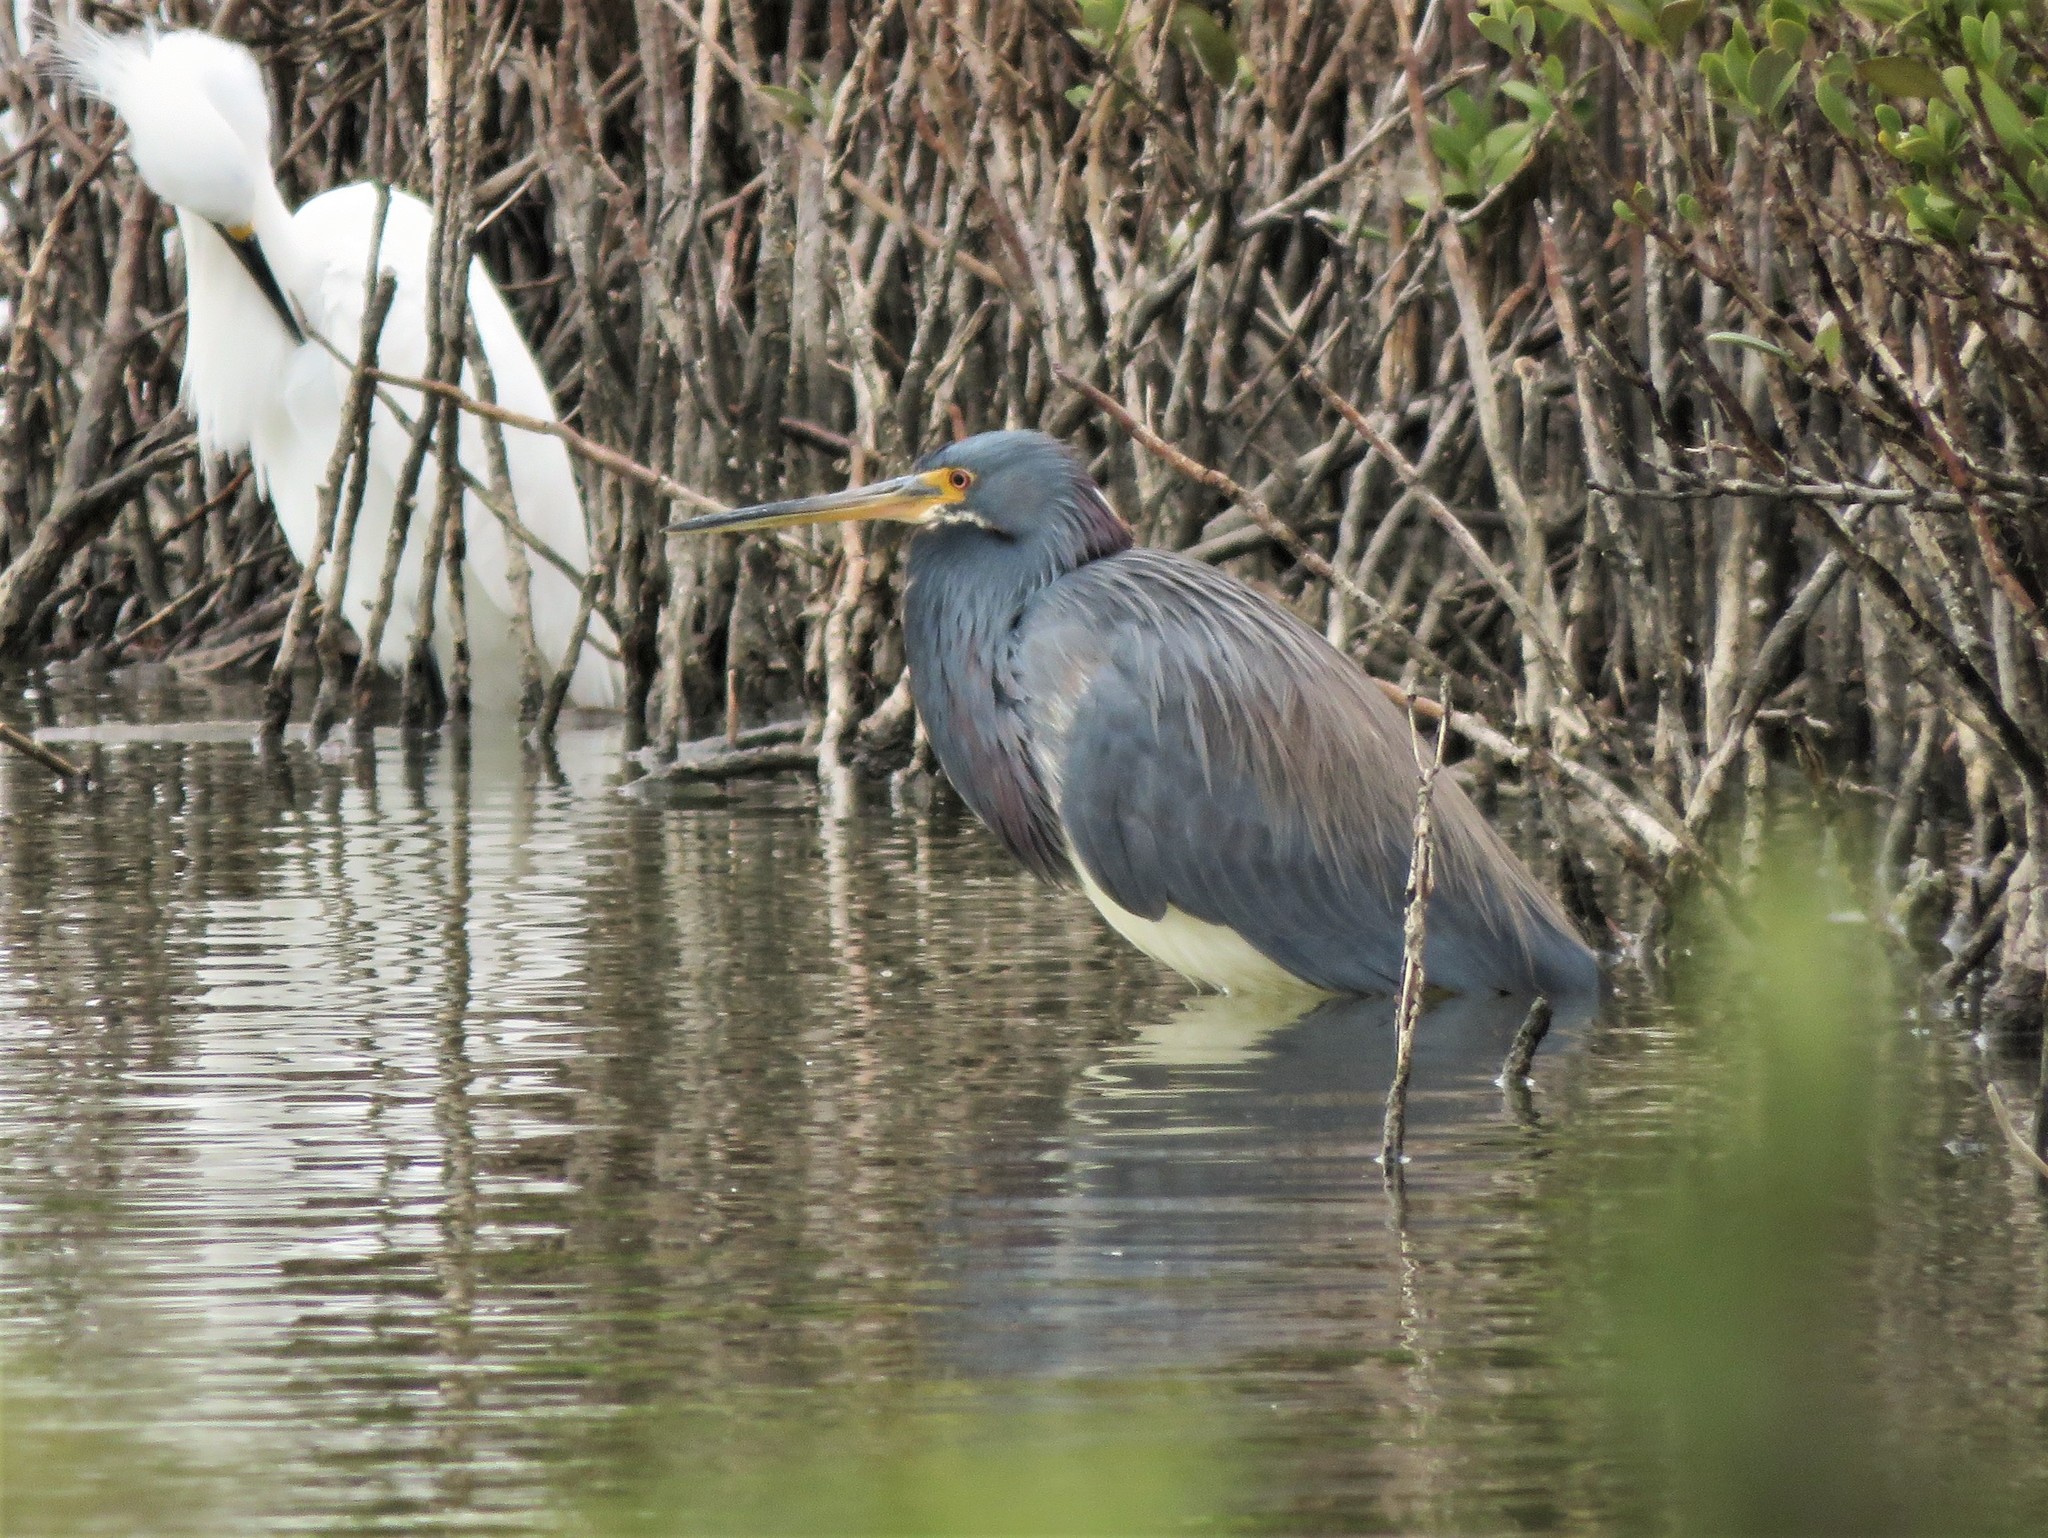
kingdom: Animalia
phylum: Chordata
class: Aves
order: Pelecaniformes
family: Ardeidae
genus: Egretta
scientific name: Egretta tricolor
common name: Tricolored heron
